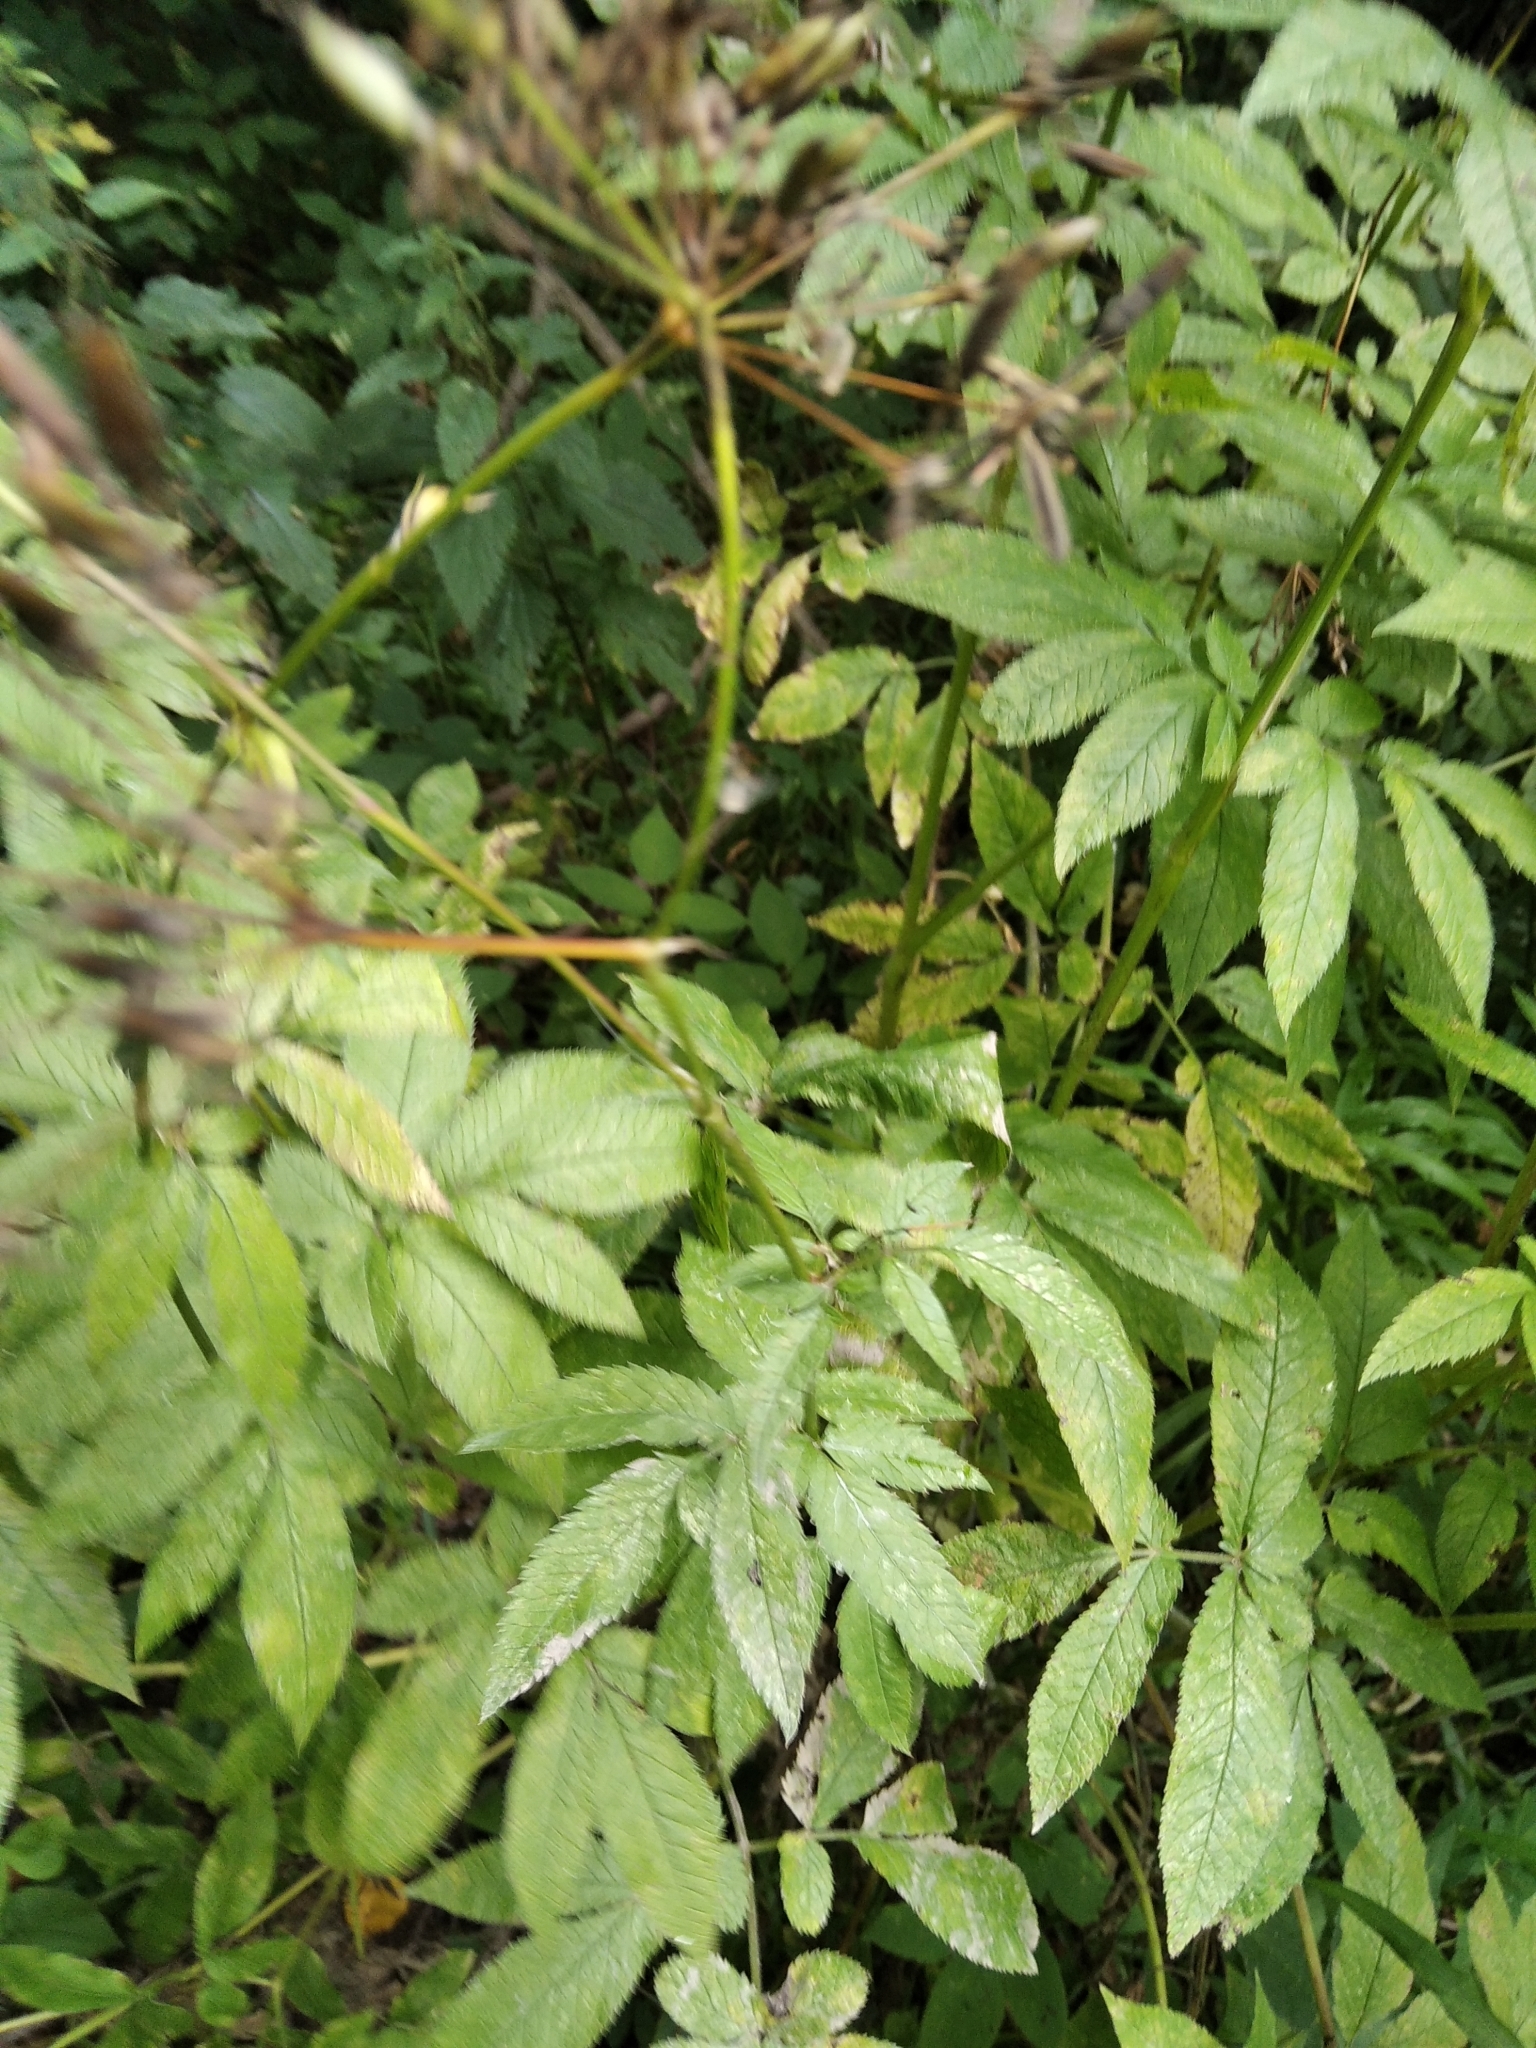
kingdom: Plantae
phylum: Tracheophyta
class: Magnoliopsida
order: Apiales
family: Apiaceae
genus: Chaerophyllum
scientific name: Chaerophyllum aromaticum
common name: Broadleaf chervil
